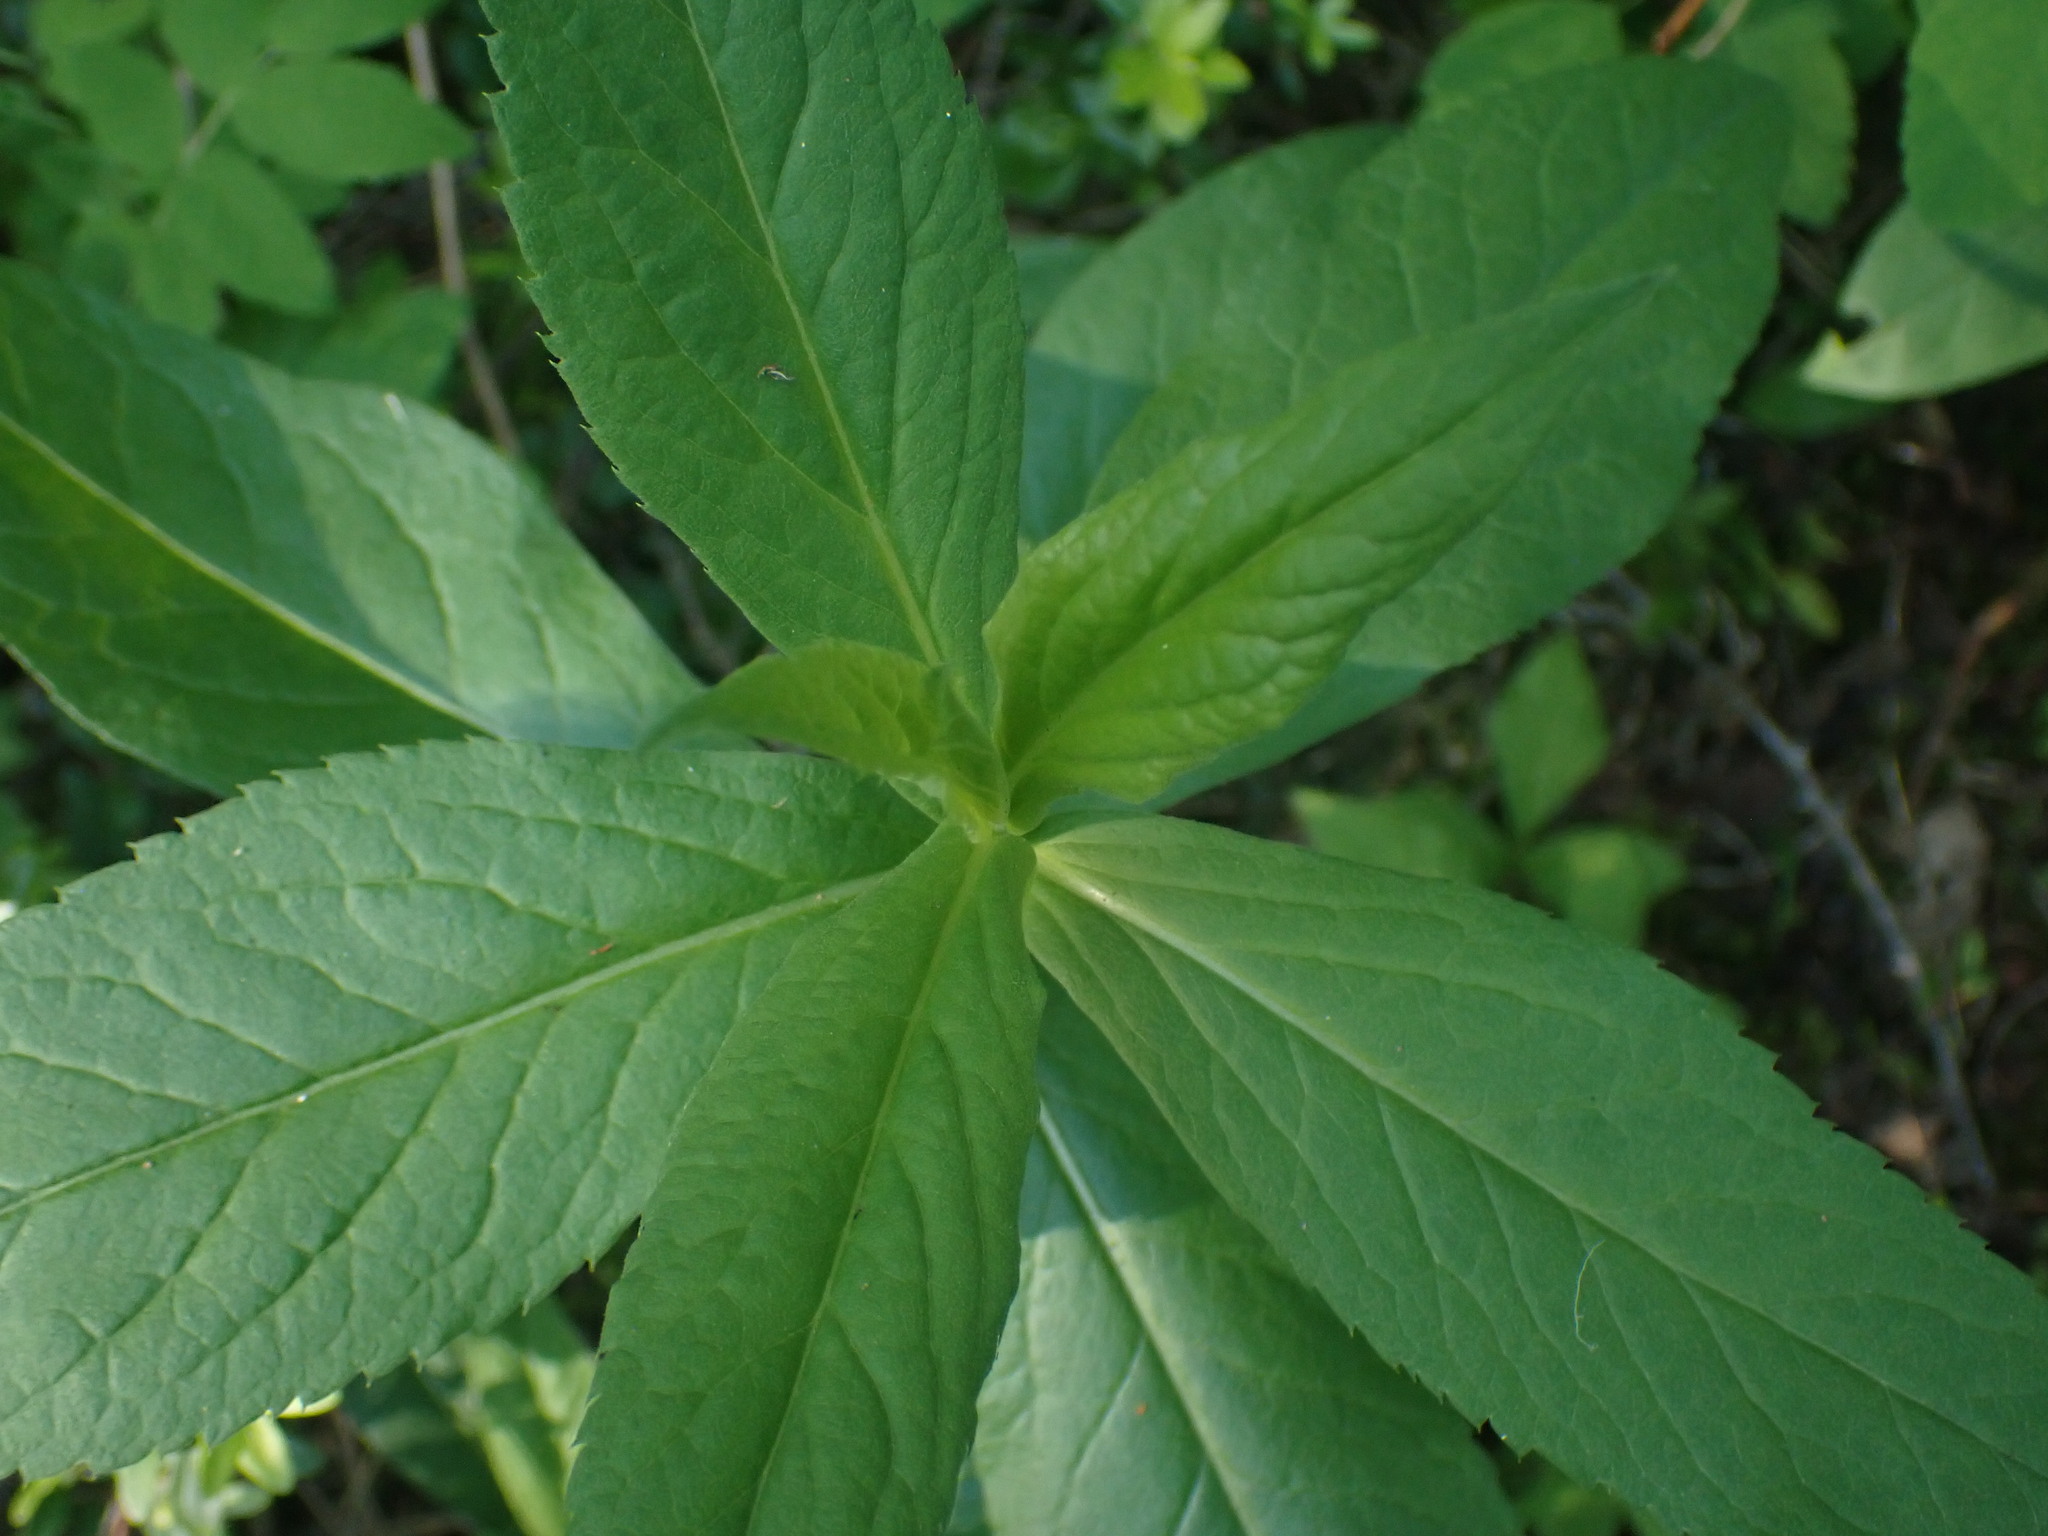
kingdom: Plantae
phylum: Tracheophyta
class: Liliopsida
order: Liliales
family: Liliaceae
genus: Lilium
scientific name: Lilium columbianum
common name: Columbia lily
